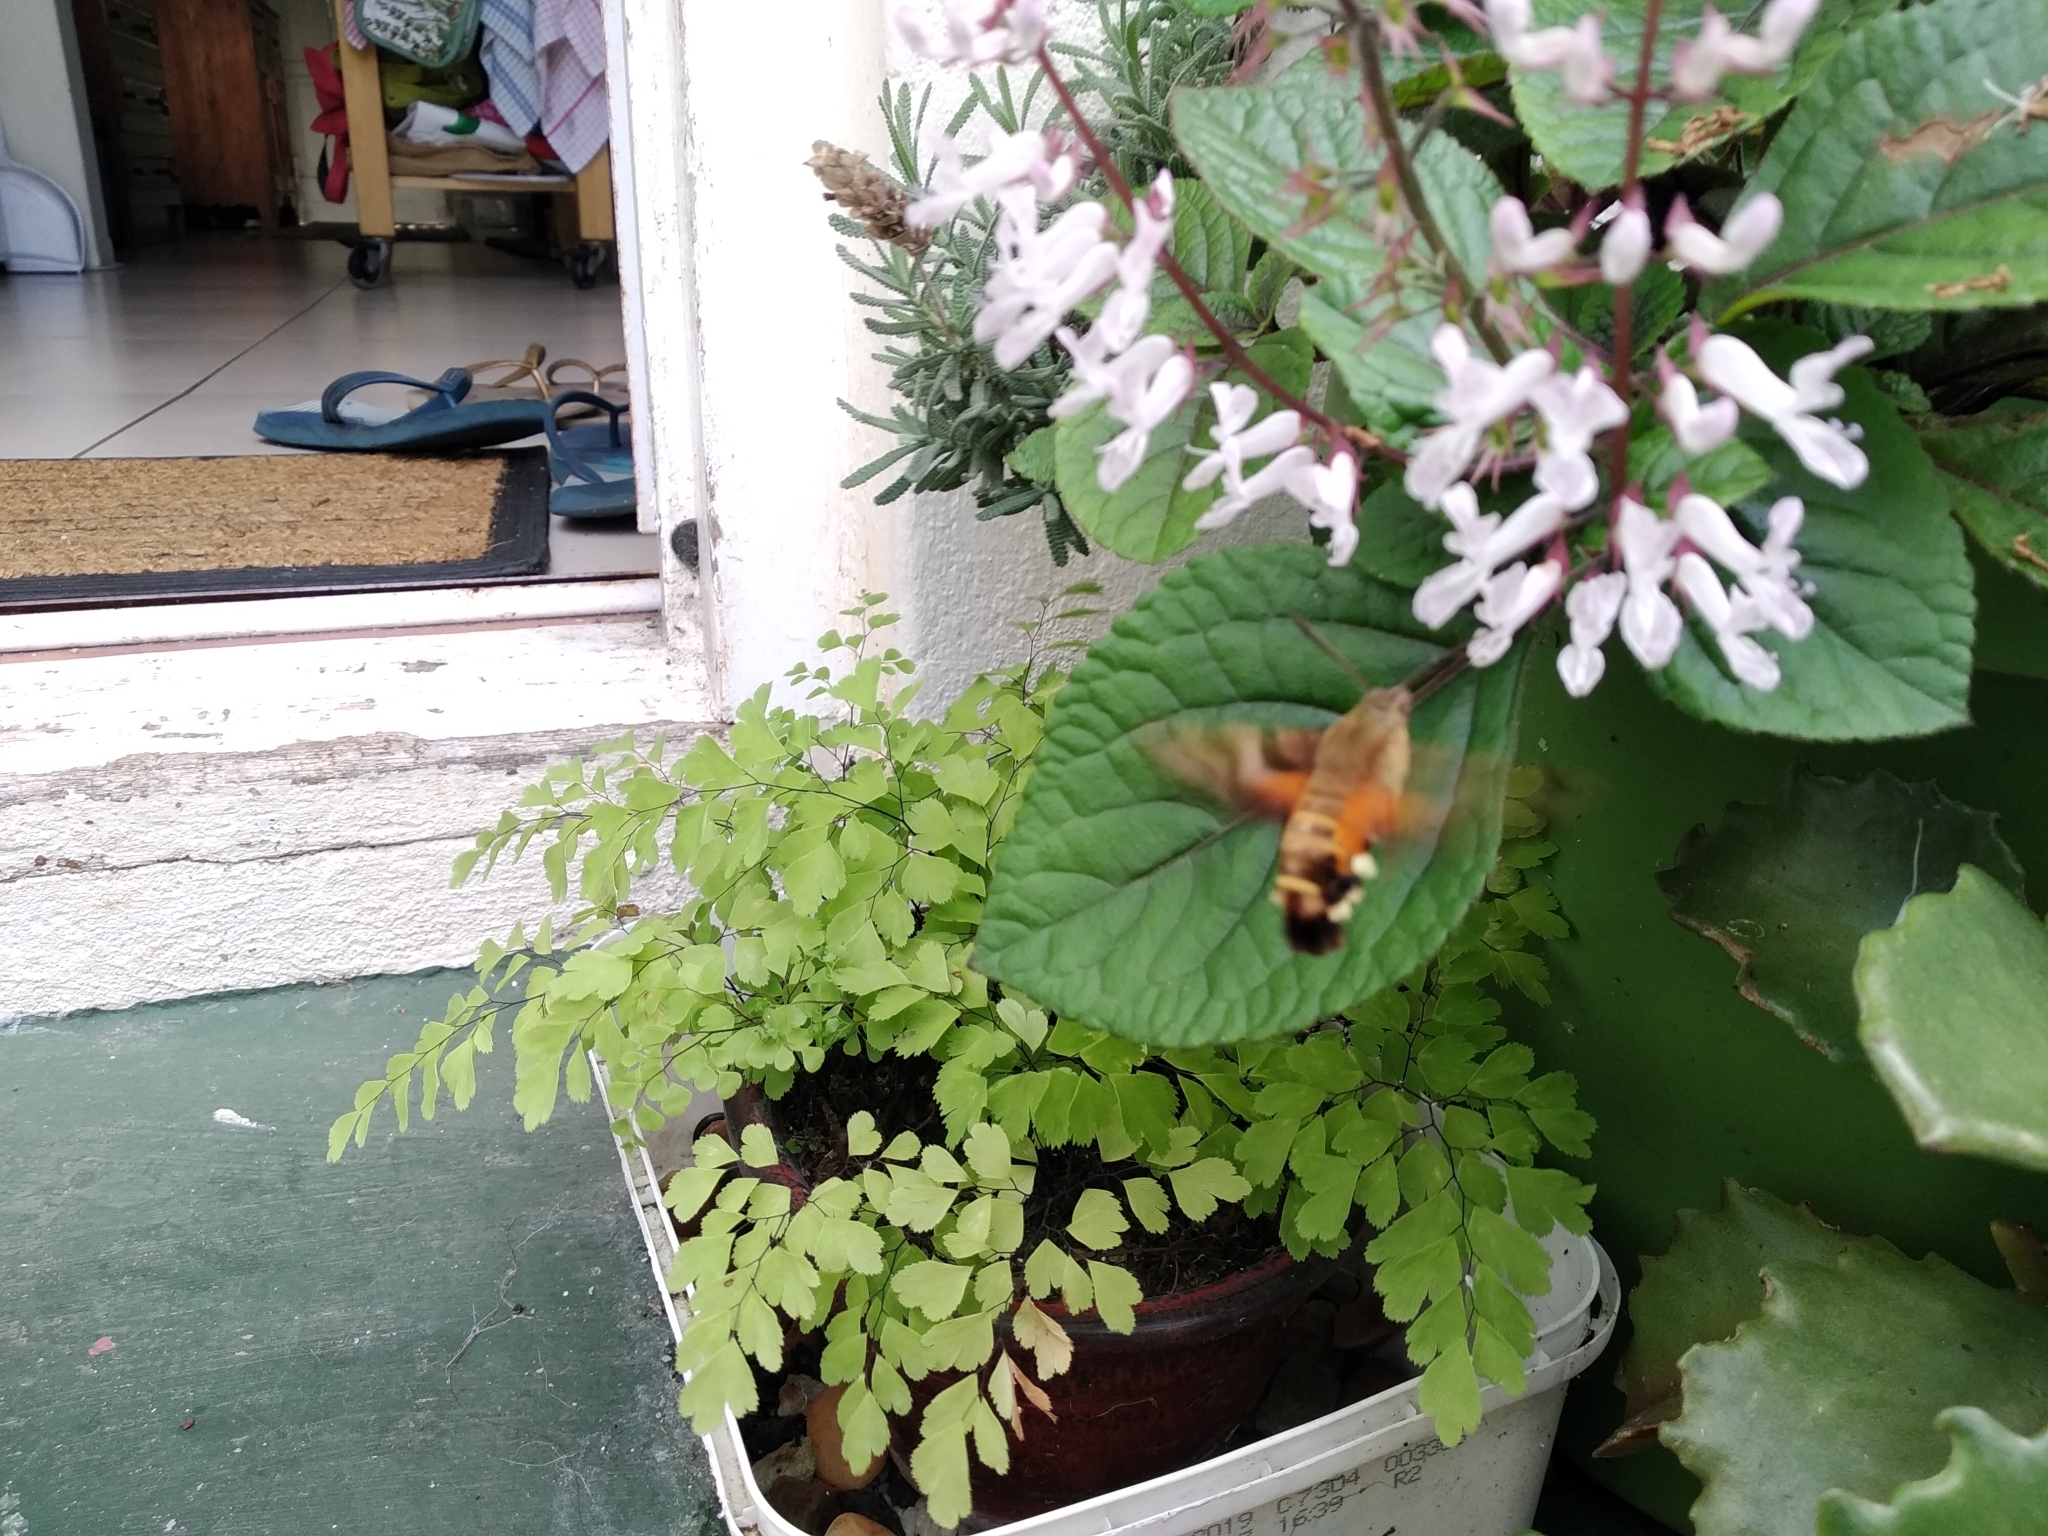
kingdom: Animalia
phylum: Arthropoda
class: Insecta
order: Lepidoptera
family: Sphingidae
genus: Macroglossum
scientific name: Macroglossum trochilus
